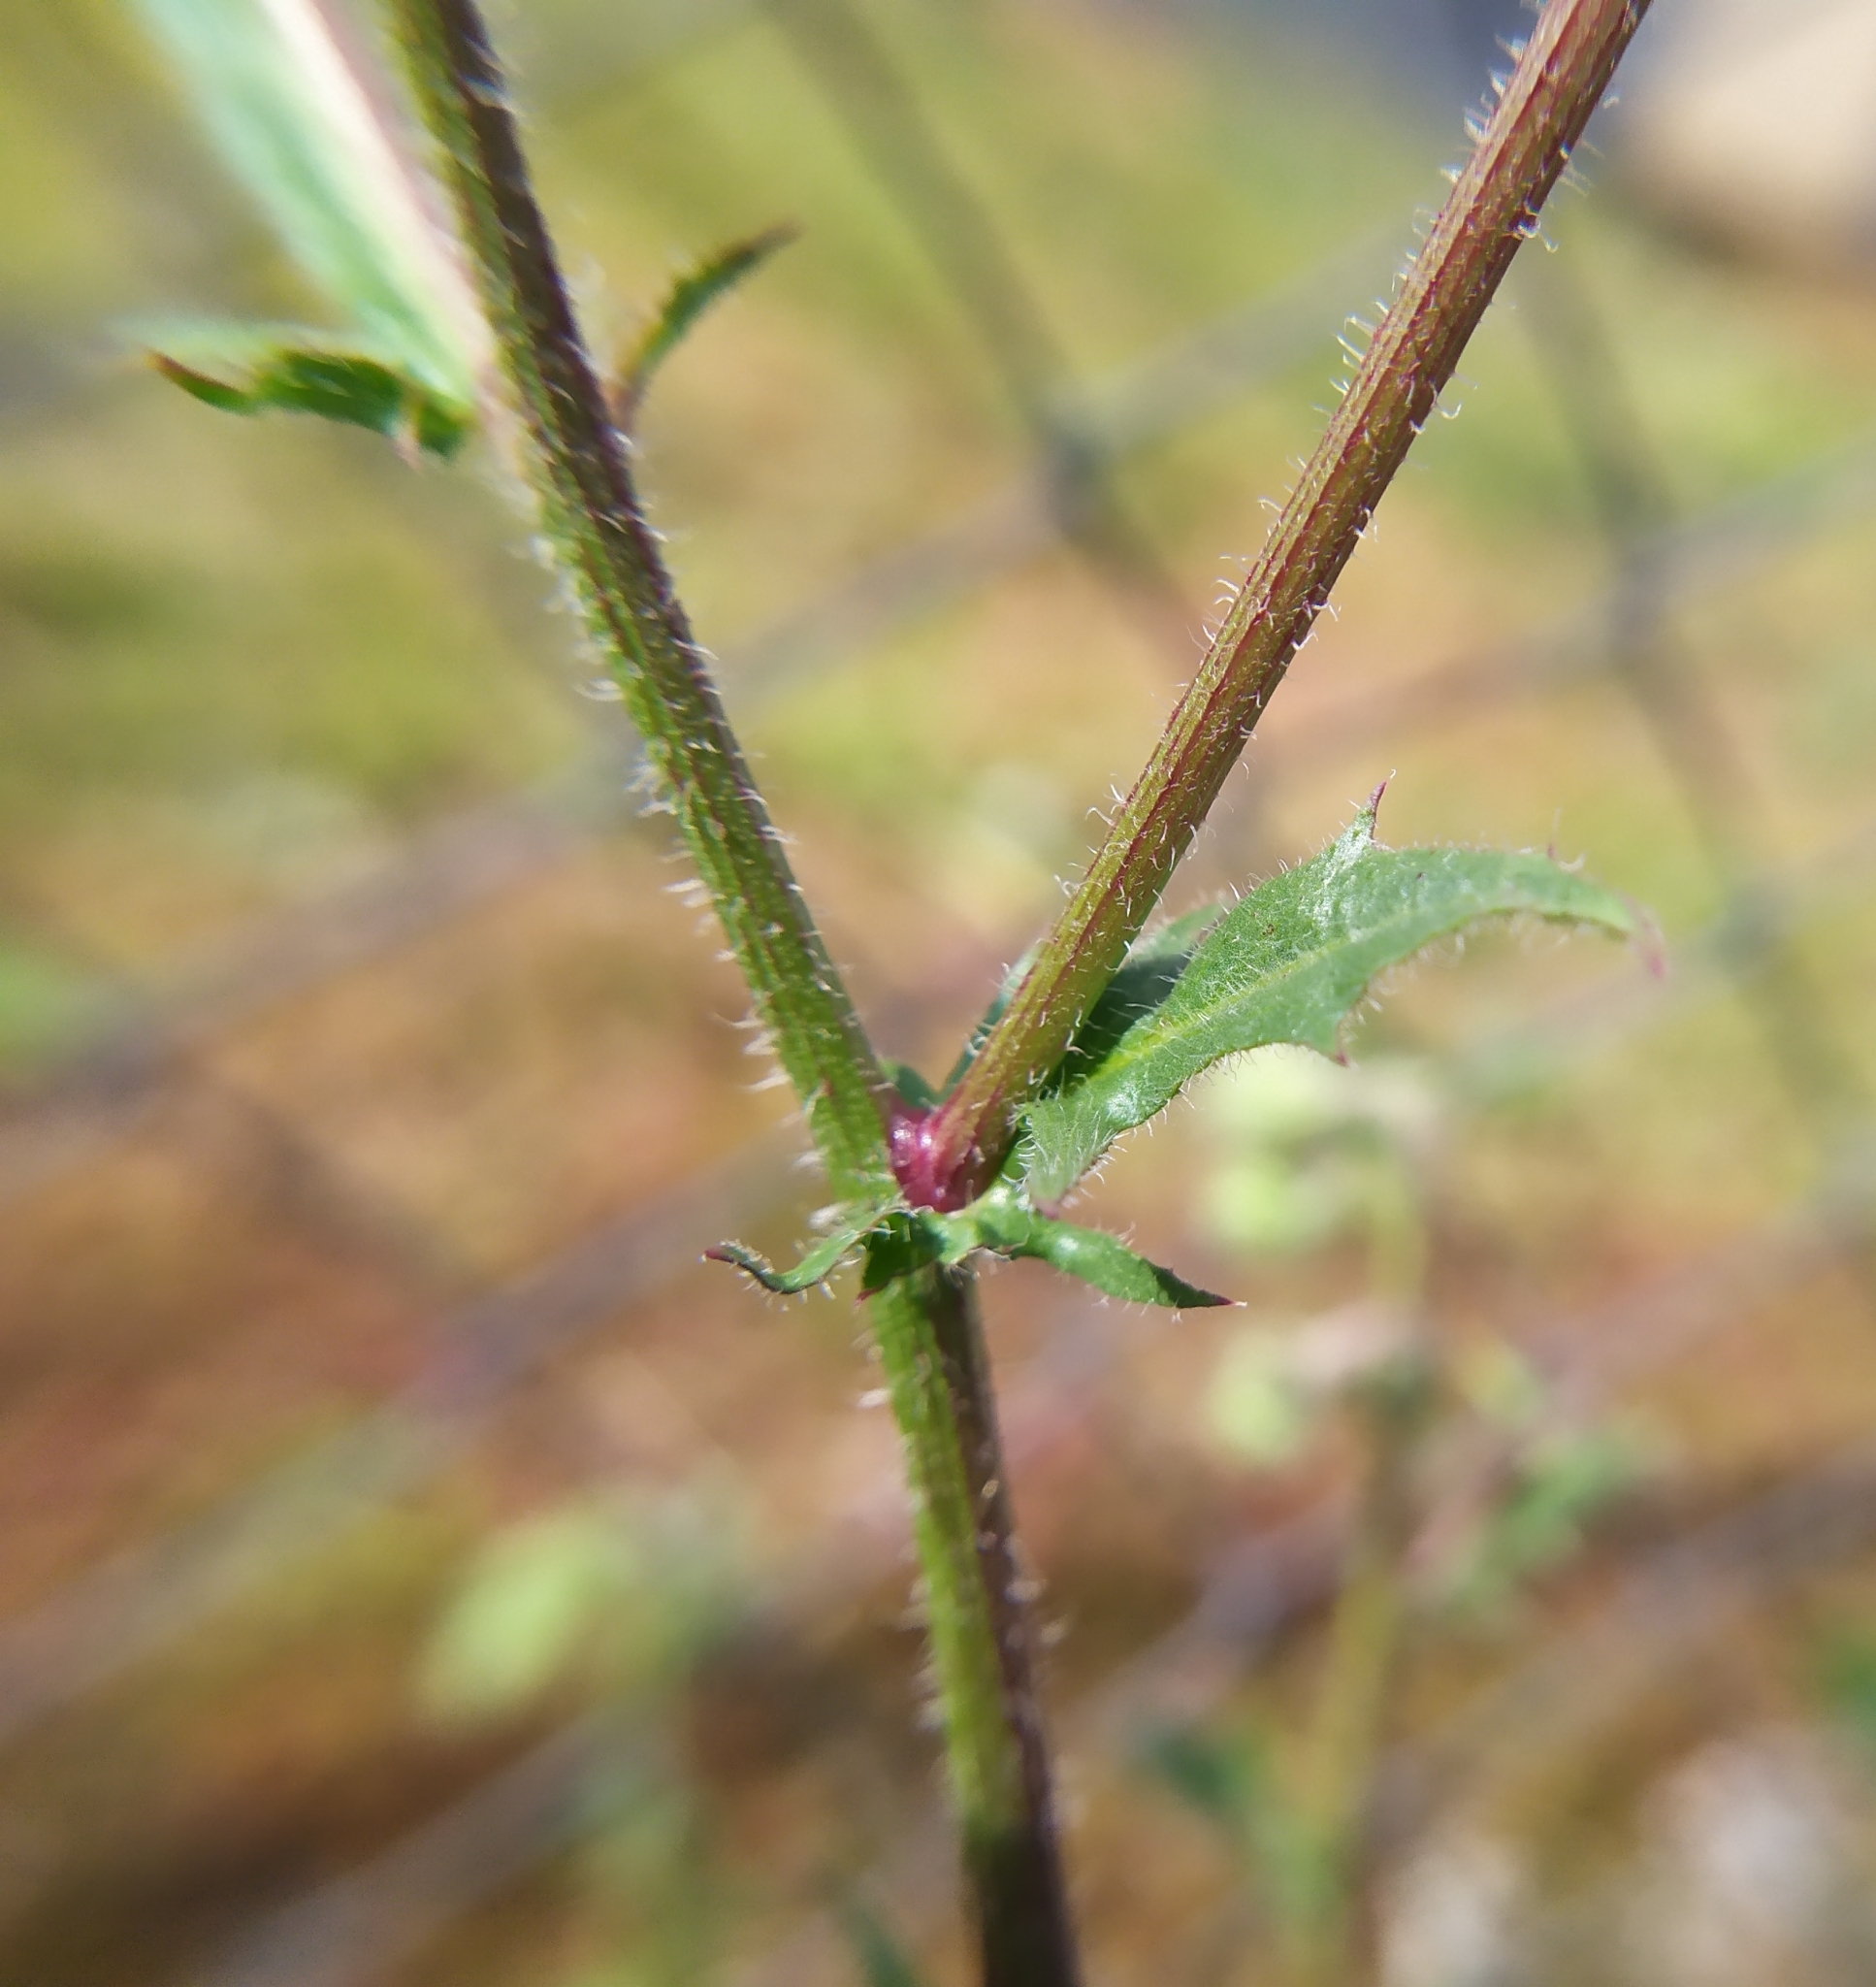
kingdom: Plantae
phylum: Tracheophyta
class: Magnoliopsida
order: Asterales
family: Asteraceae
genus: Crepis
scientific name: Crepis foetida
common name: Stinking hawk's-beard
